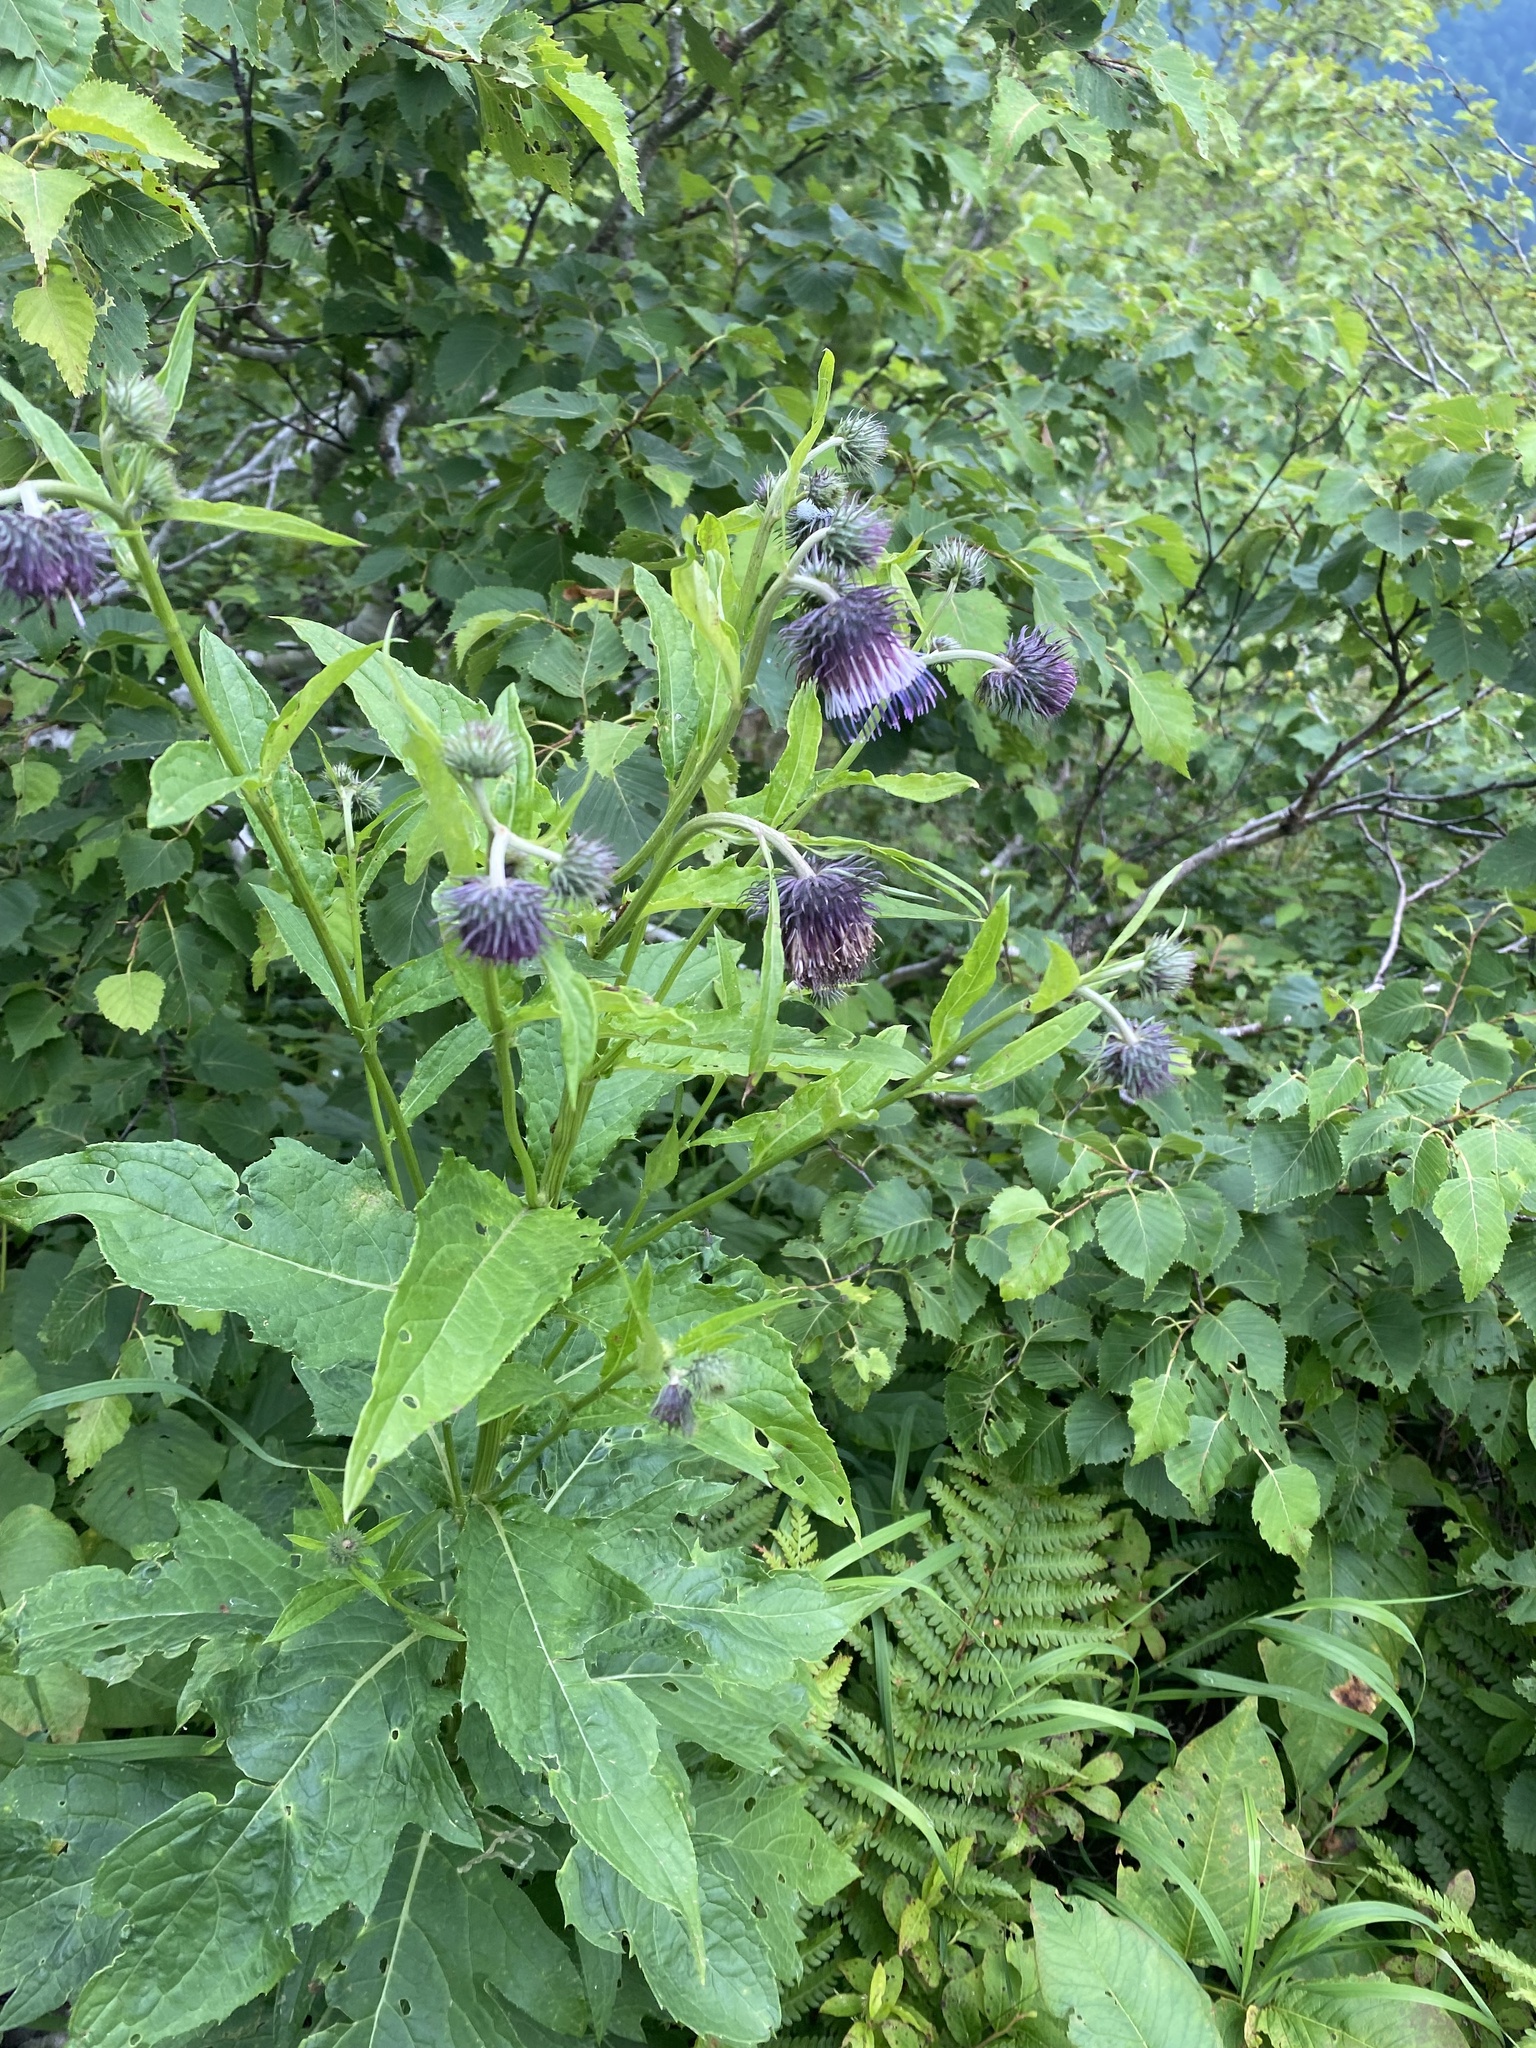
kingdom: Plantae
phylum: Tracheophyta
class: Magnoliopsida
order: Asterales
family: Asteraceae
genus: Cirsium
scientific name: Cirsium kamtschaticum
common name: Kamchatka thistle
